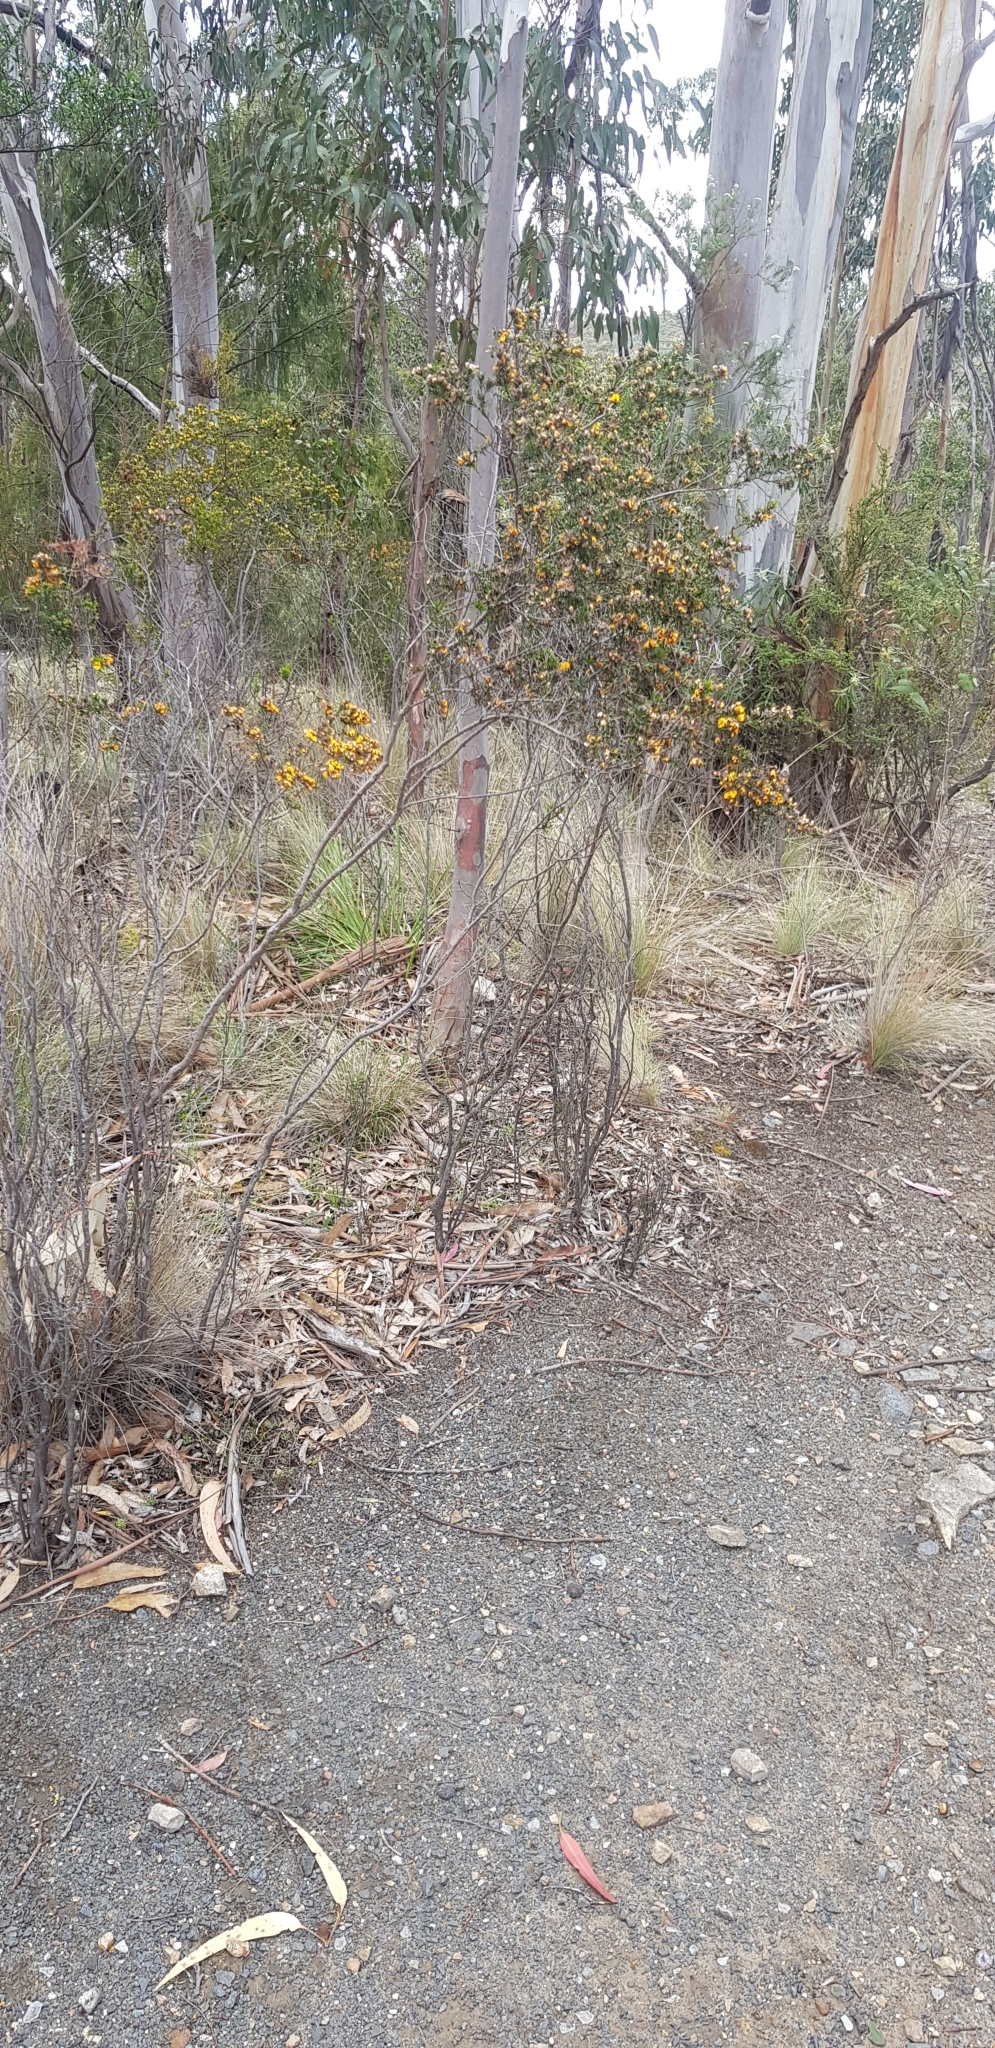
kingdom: Plantae
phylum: Tracheophyta
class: Magnoliopsida
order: Fabales
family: Fabaceae
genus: Pultenaea
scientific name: Pultenaea juniperina
